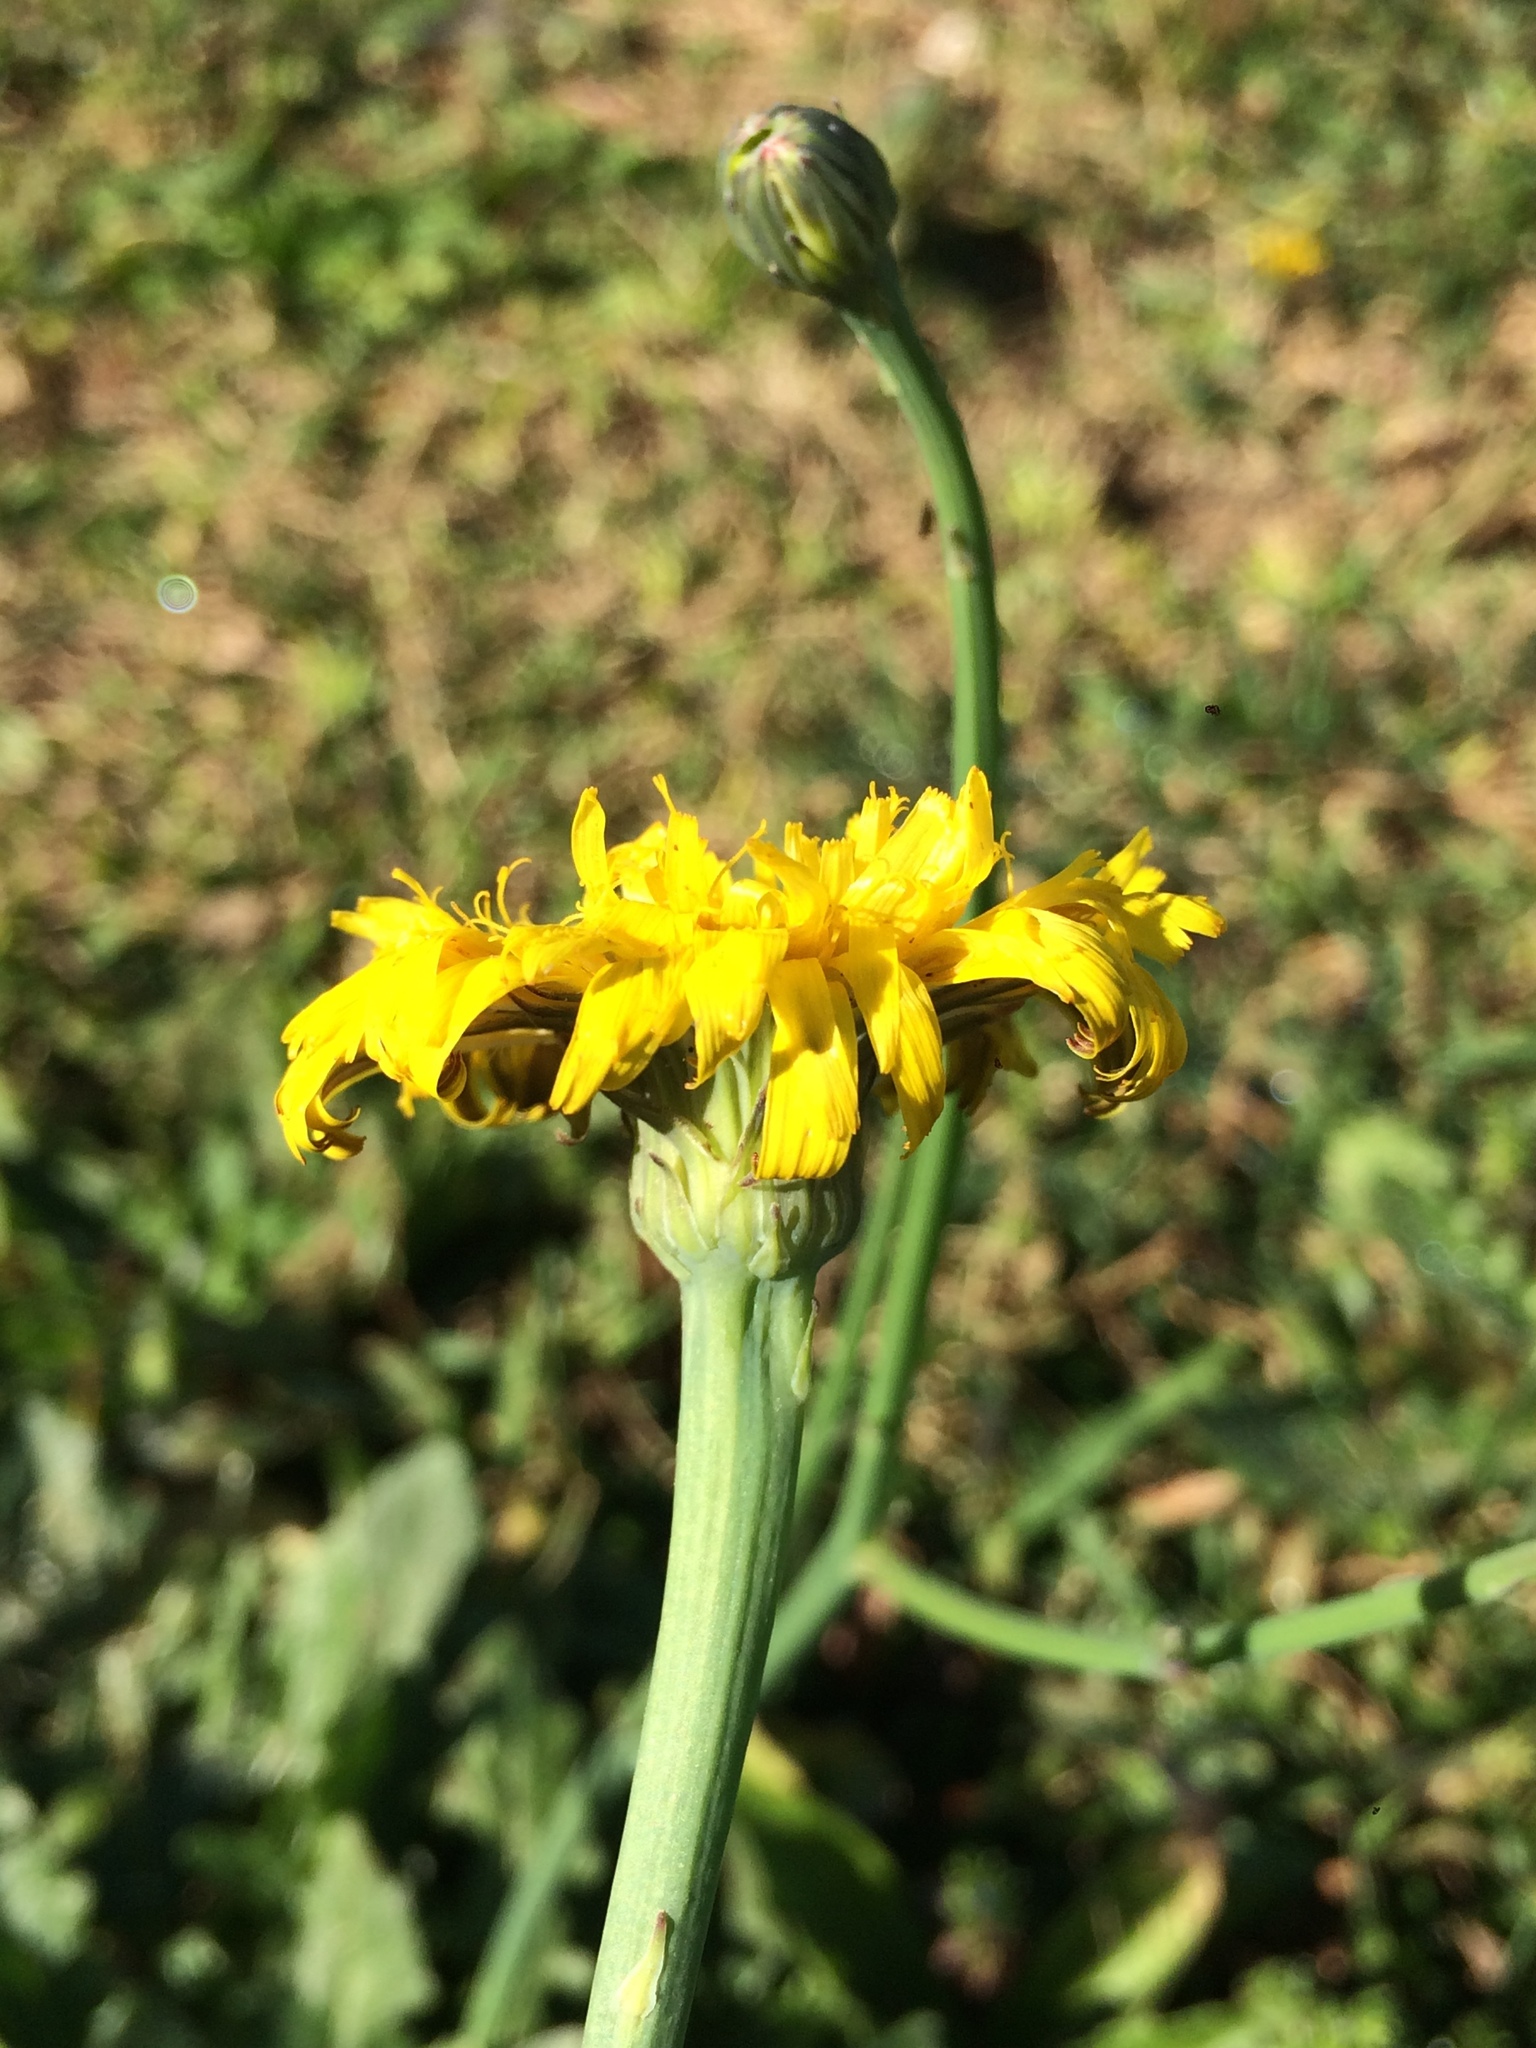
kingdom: Plantae
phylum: Tracheophyta
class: Magnoliopsida
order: Asterales
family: Asteraceae
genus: Hypochaeris
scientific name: Hypochaeris radicata
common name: Flatweed
